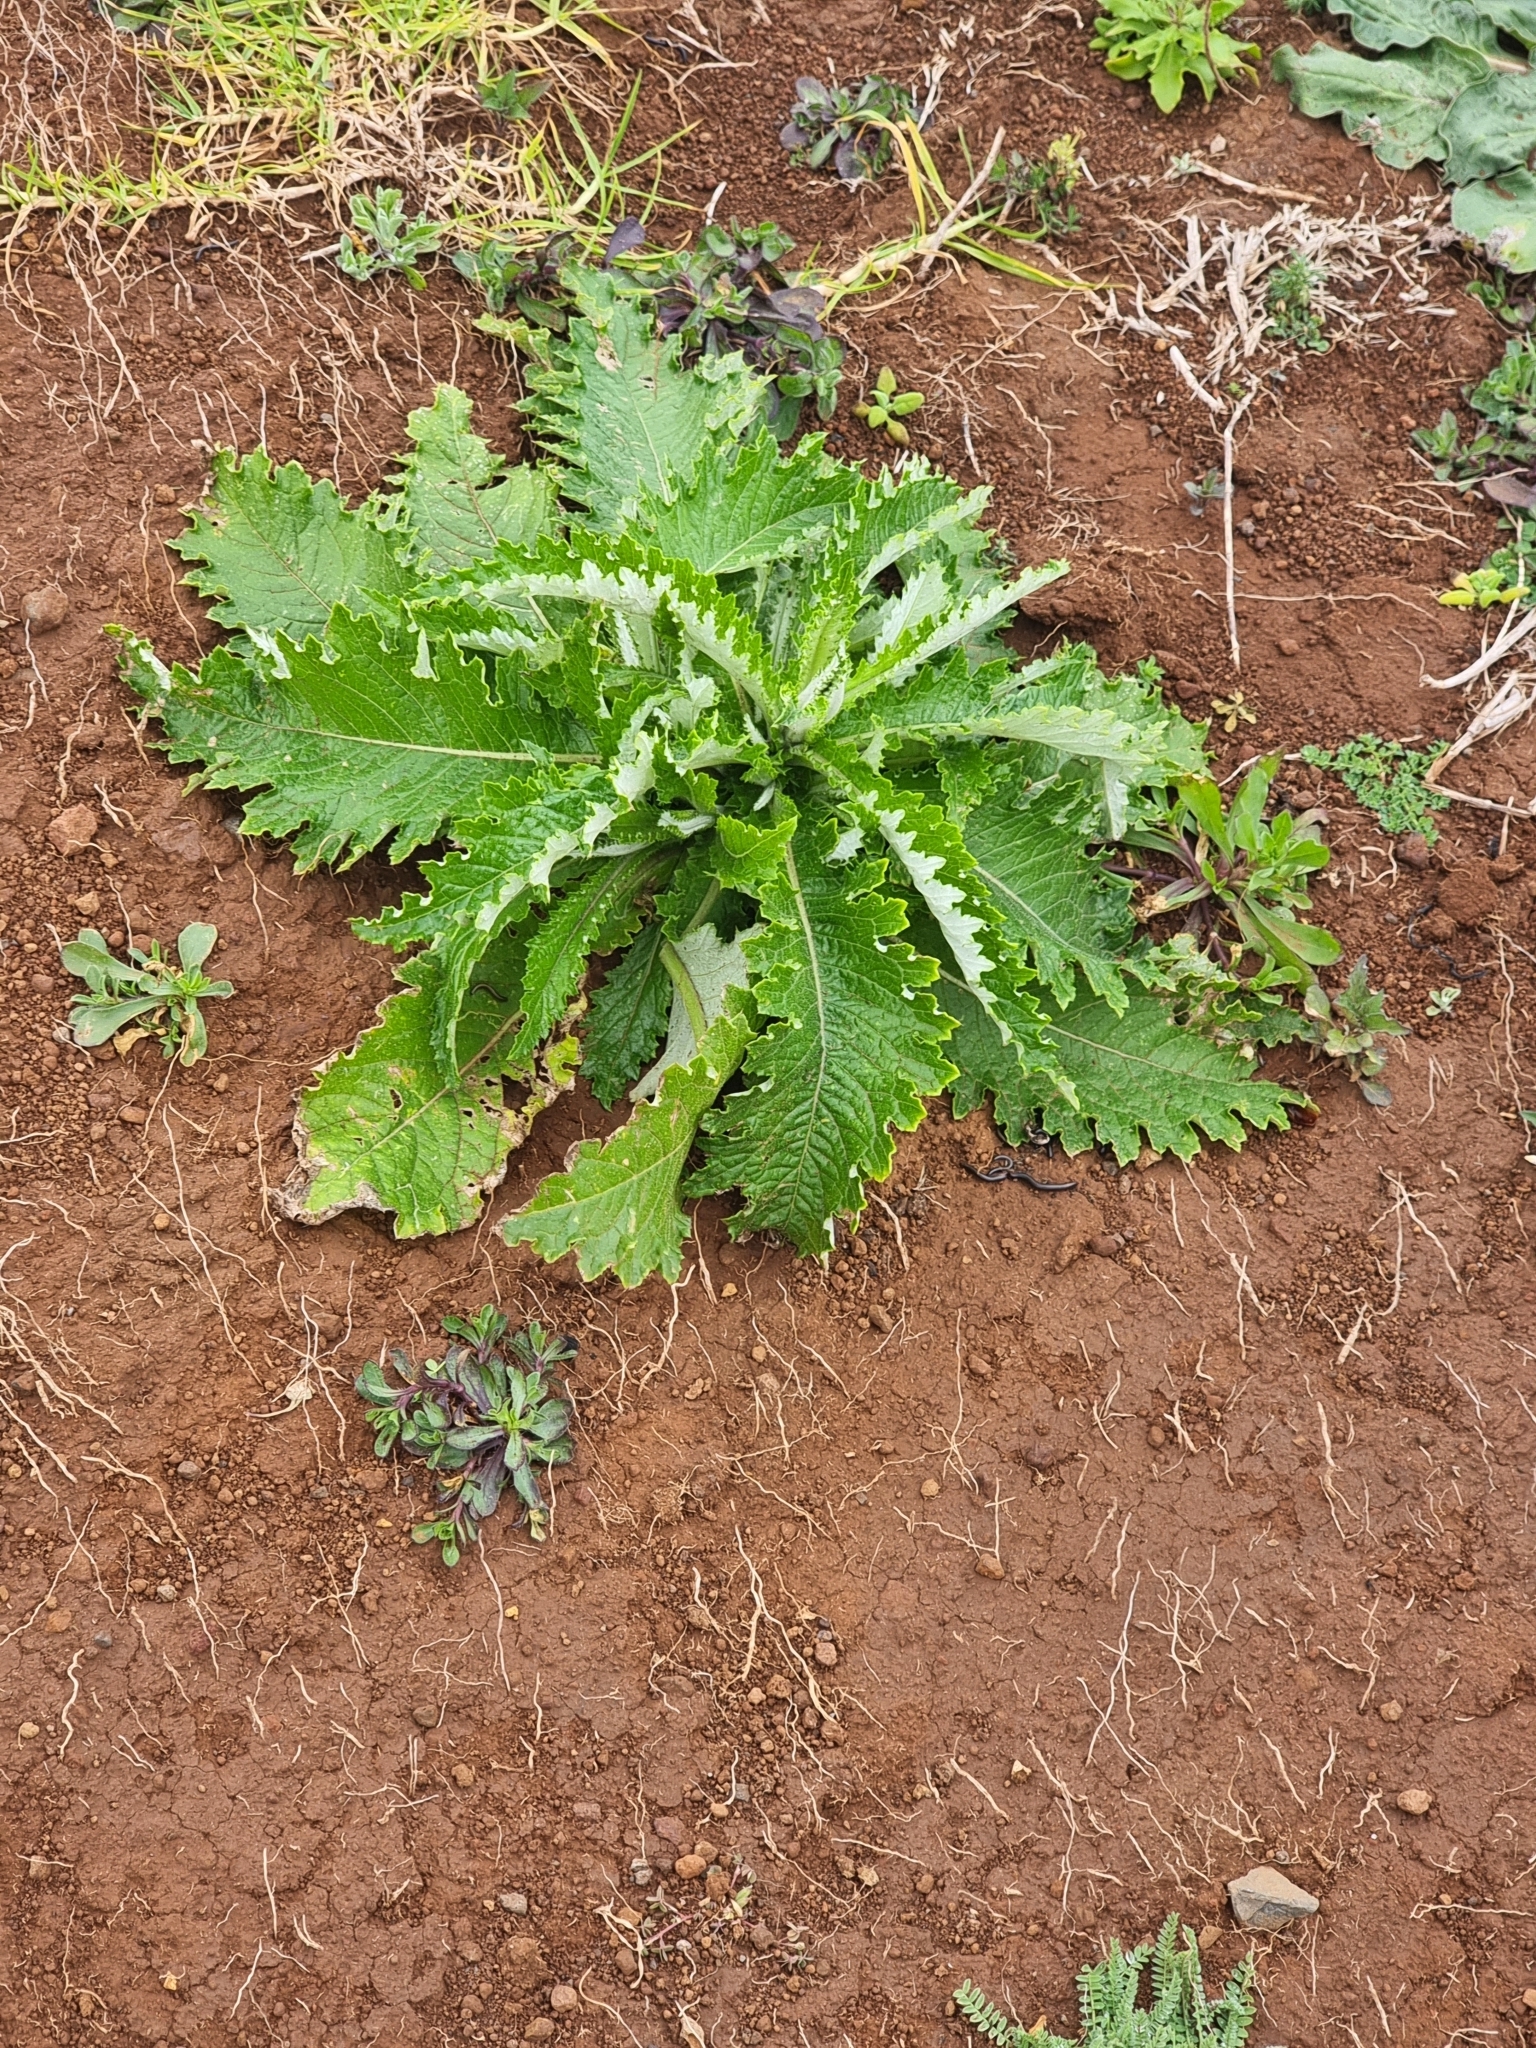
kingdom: Plantae
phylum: Tracheophyta
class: Magnoliopsida
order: Asterales
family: Asteraceae
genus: Carduus
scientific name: Carduus squarrosus
